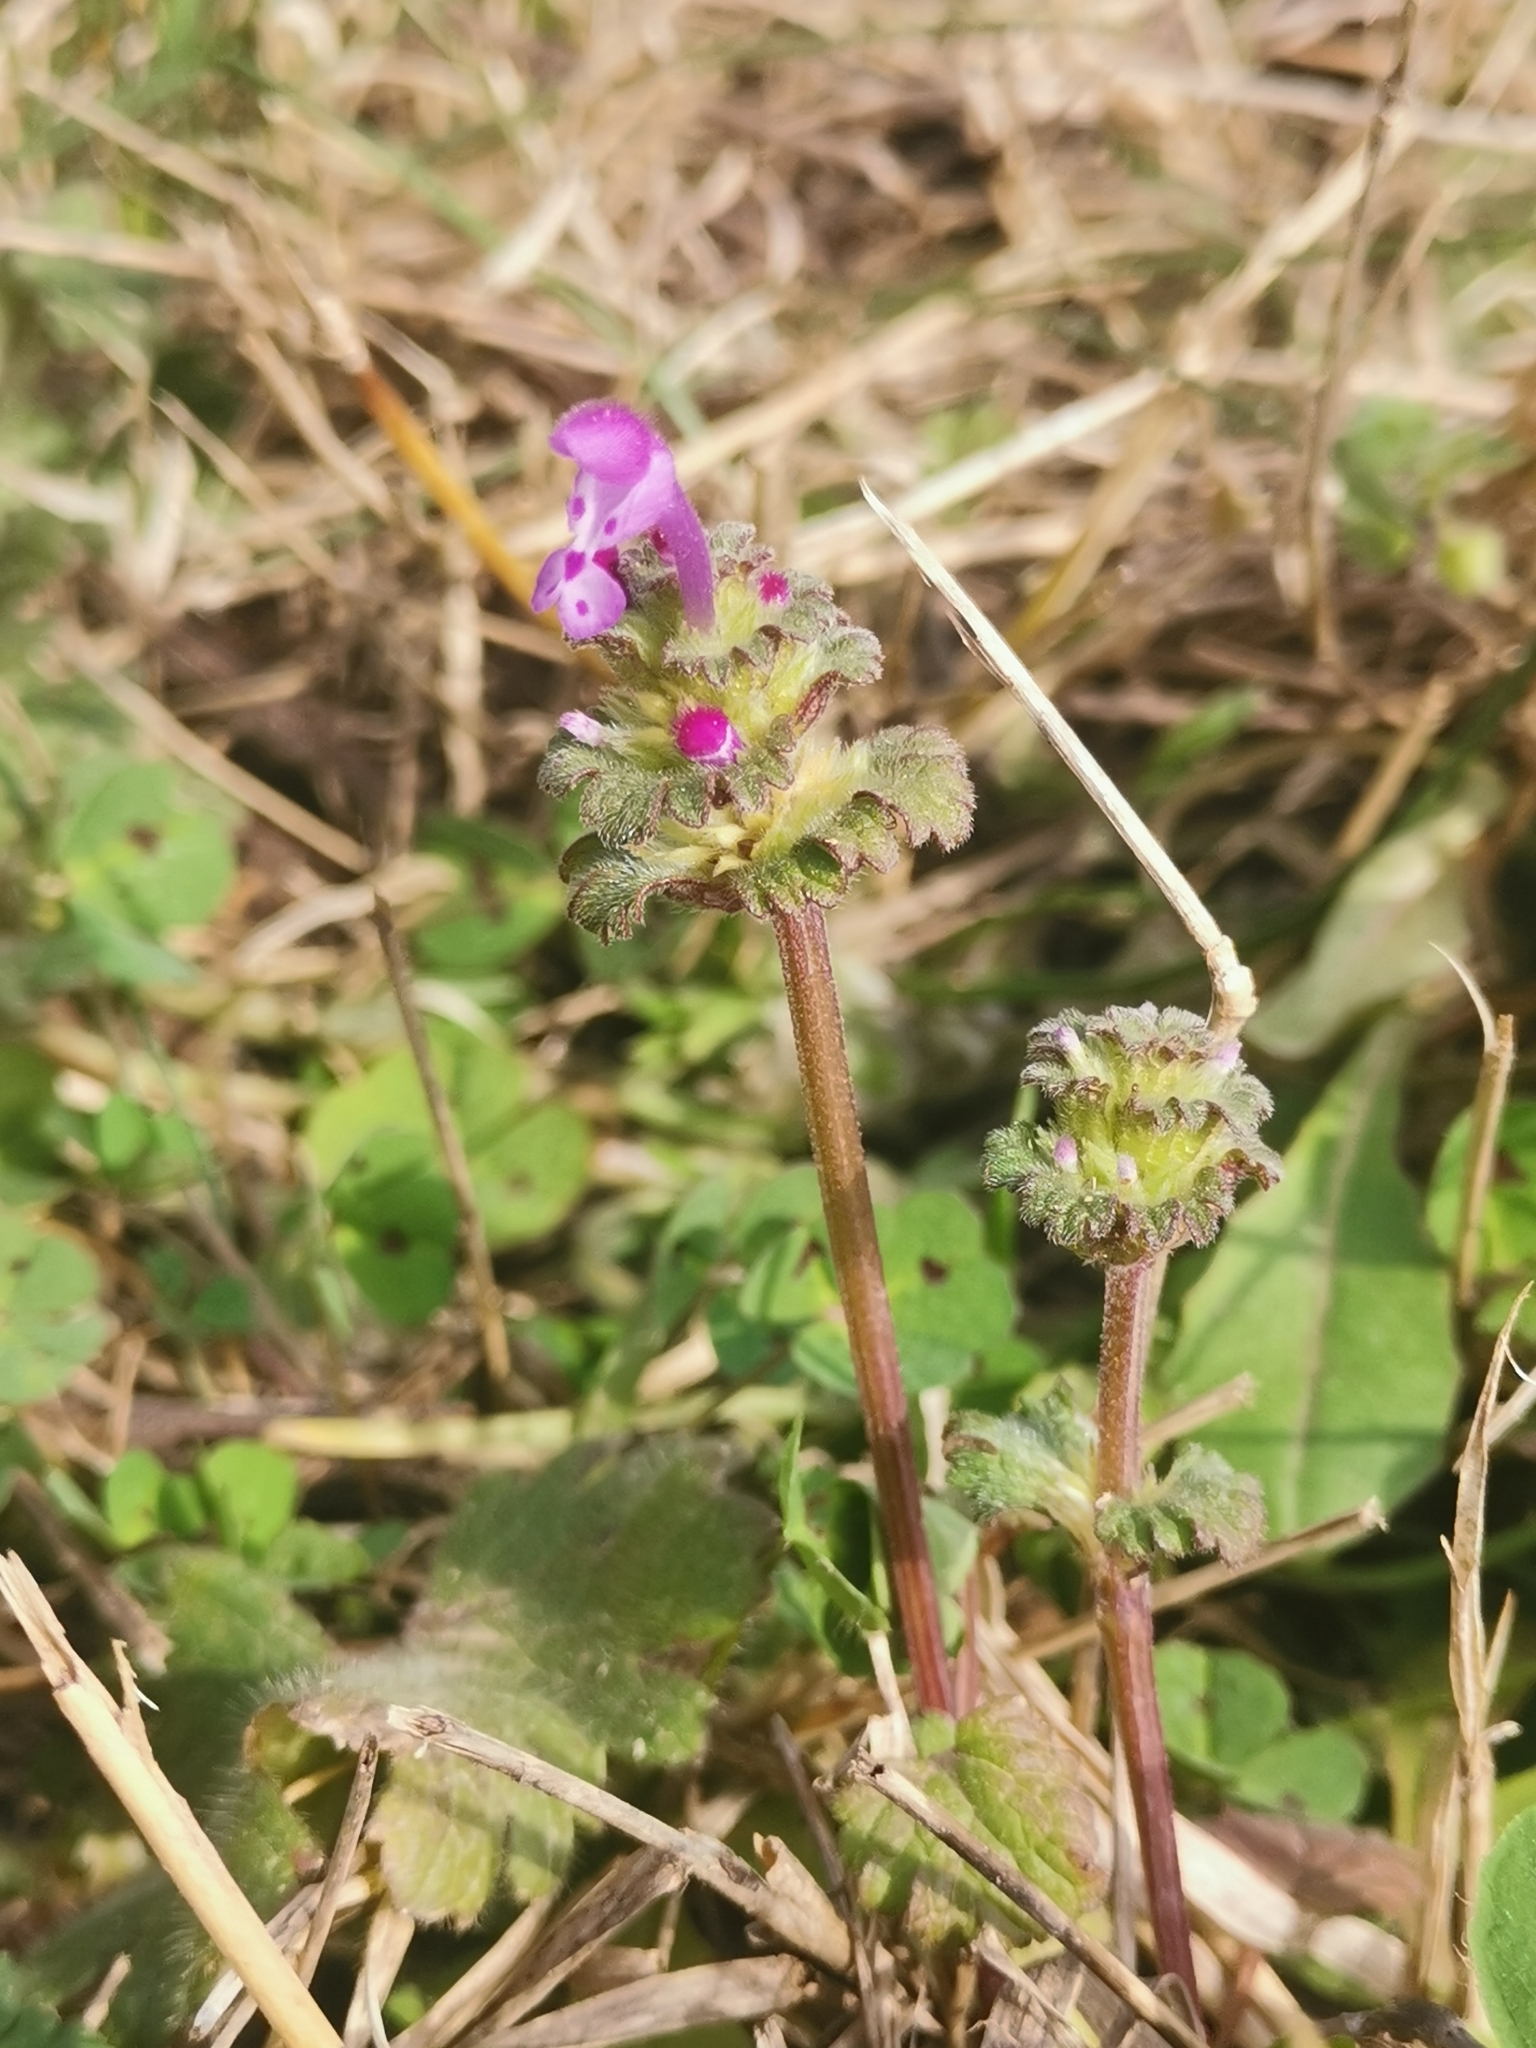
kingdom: Plantae
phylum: Tracheophyta
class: Magnoliopsida
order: Lamiales
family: Lamiaceae
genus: Lamium
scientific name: Lamium amplexicaule
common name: Henbit dead-nettle
